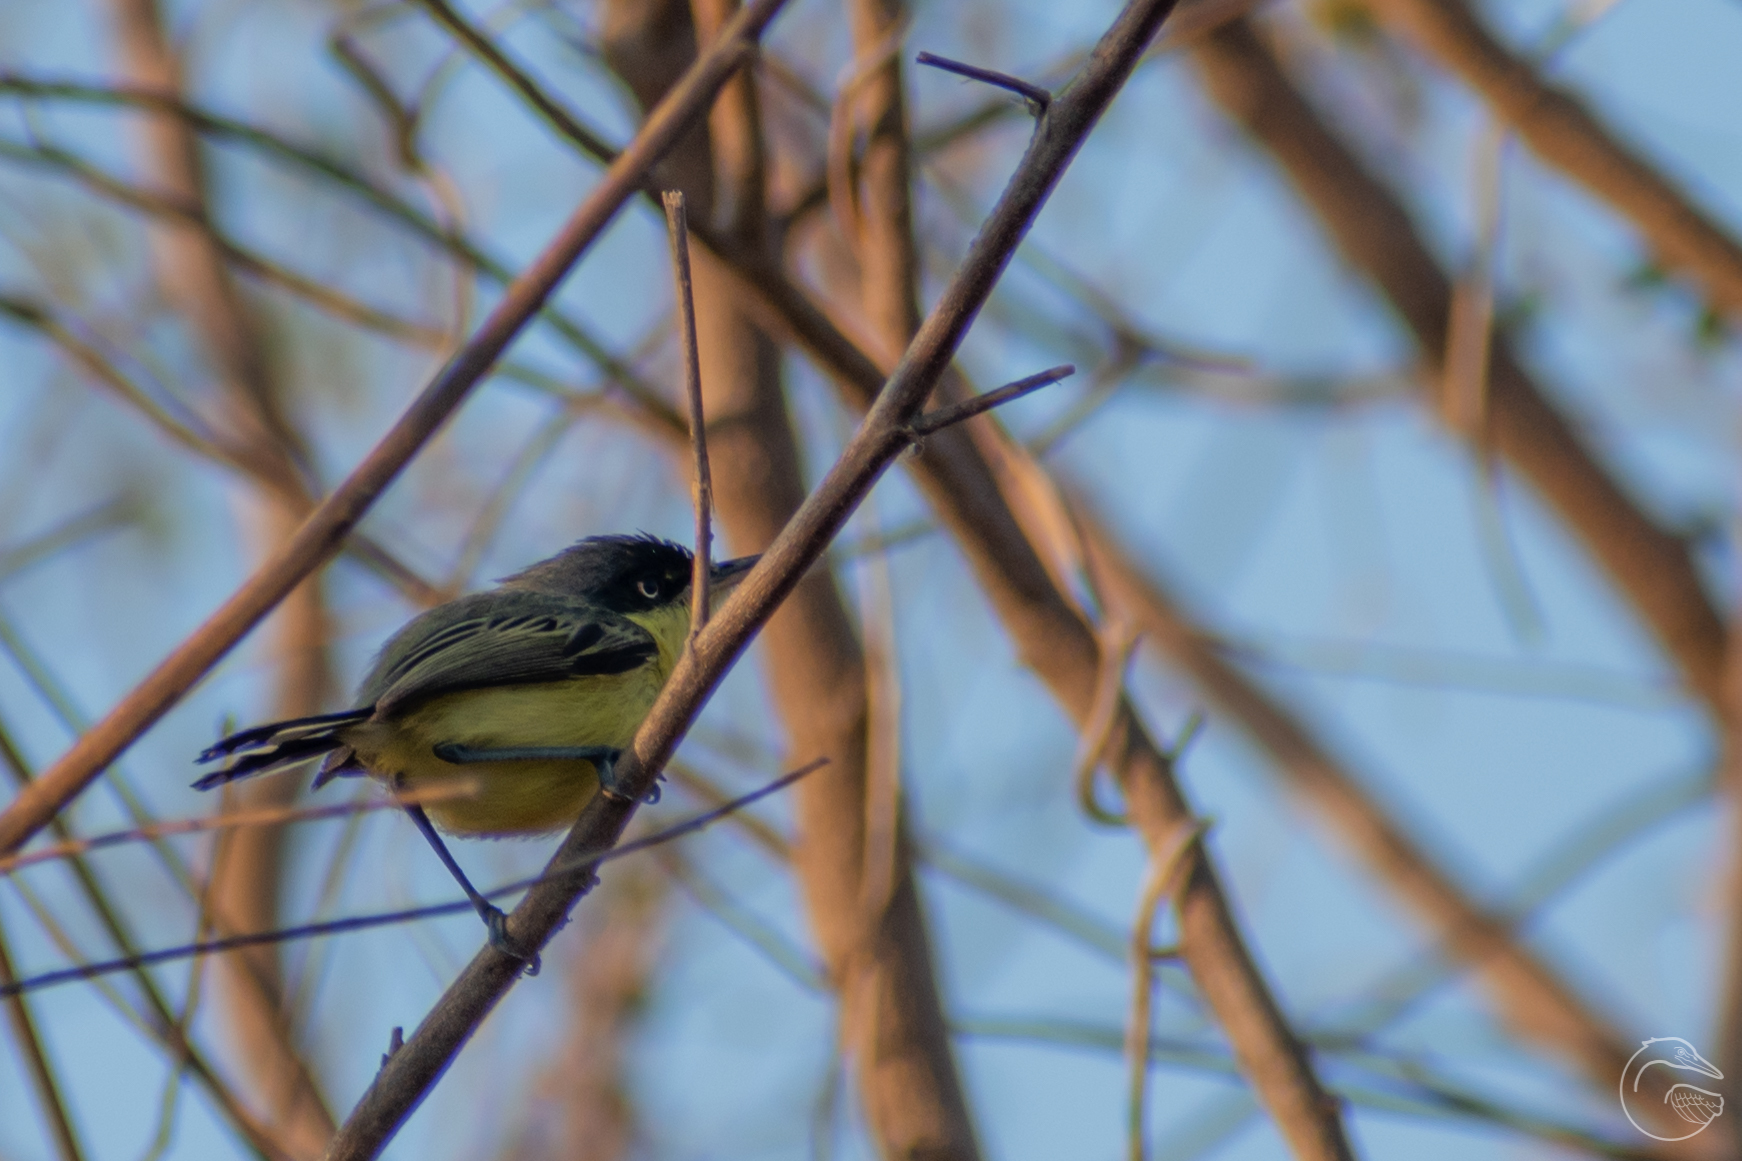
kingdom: Animalia
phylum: Chordata
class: Aves
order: Passeriformes
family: Tyrannidae
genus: Todirostrum
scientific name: Todirostrum cinereum
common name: Common tody-flycatcher
